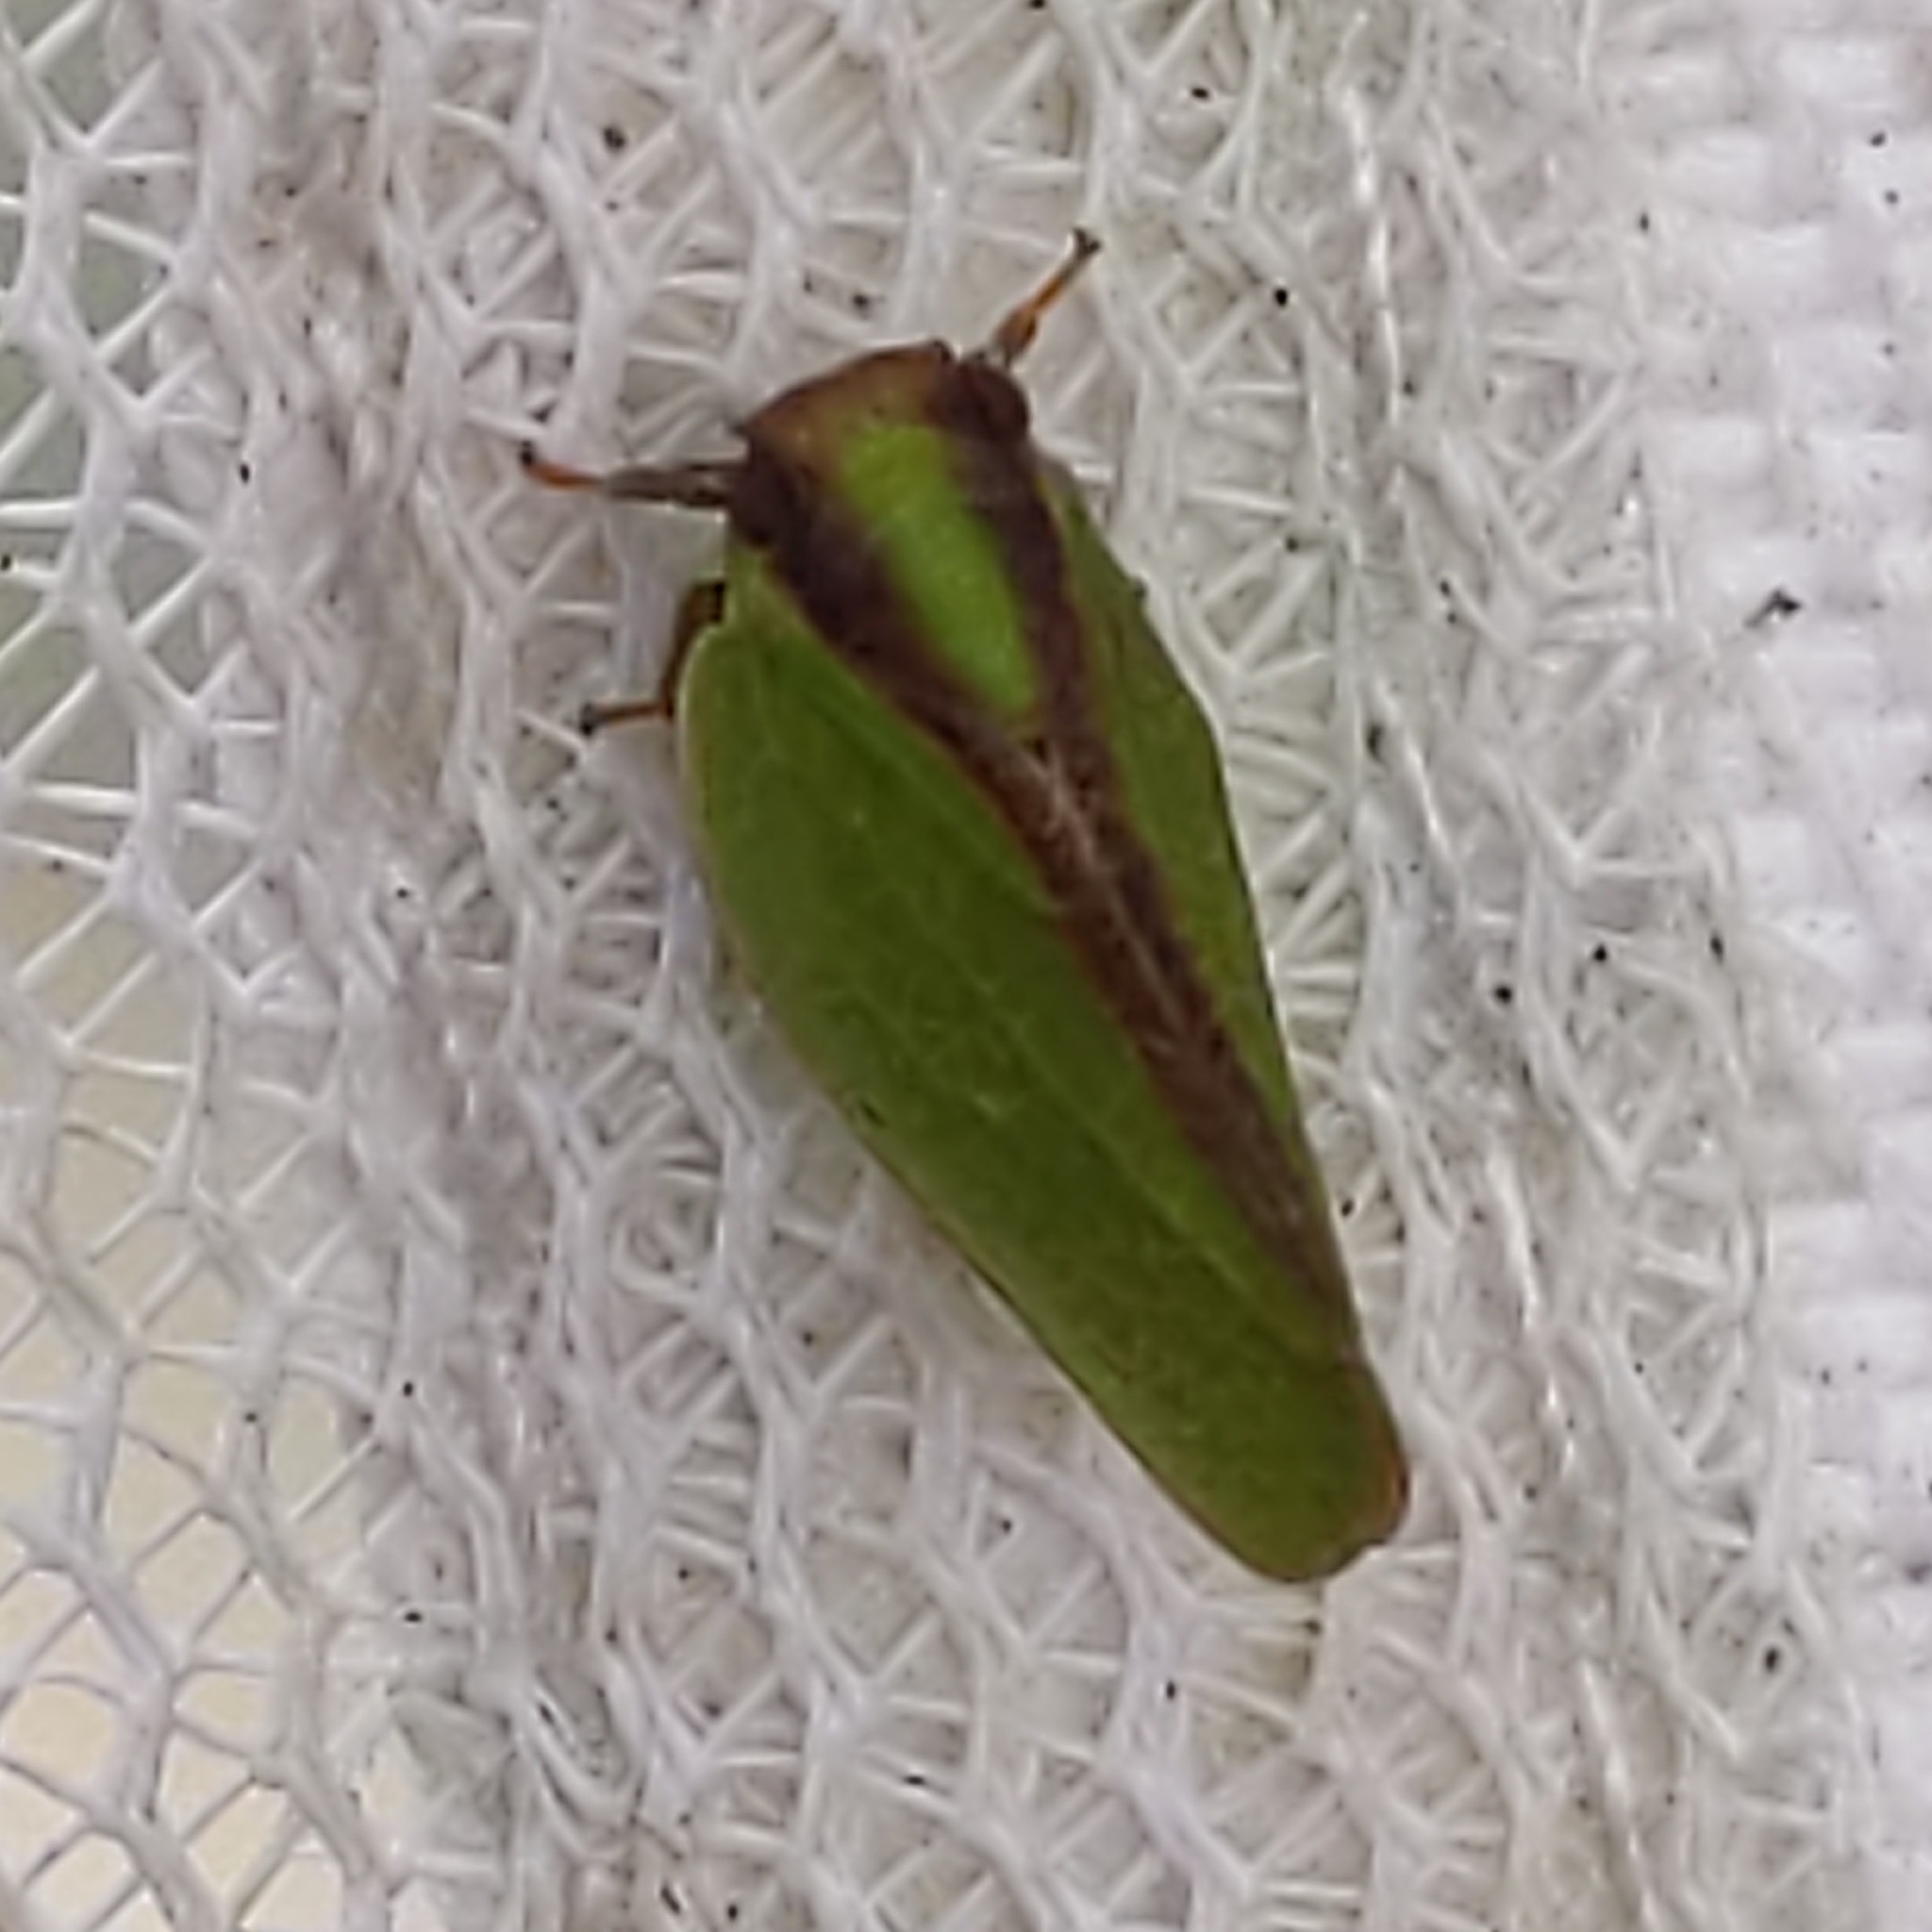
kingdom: Animalia
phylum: Arthropoda
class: Insecta
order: Hemiptera
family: Acanaloniidae
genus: Acanalonia
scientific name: Acanalonia bivittata
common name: Two-striped planthopper
